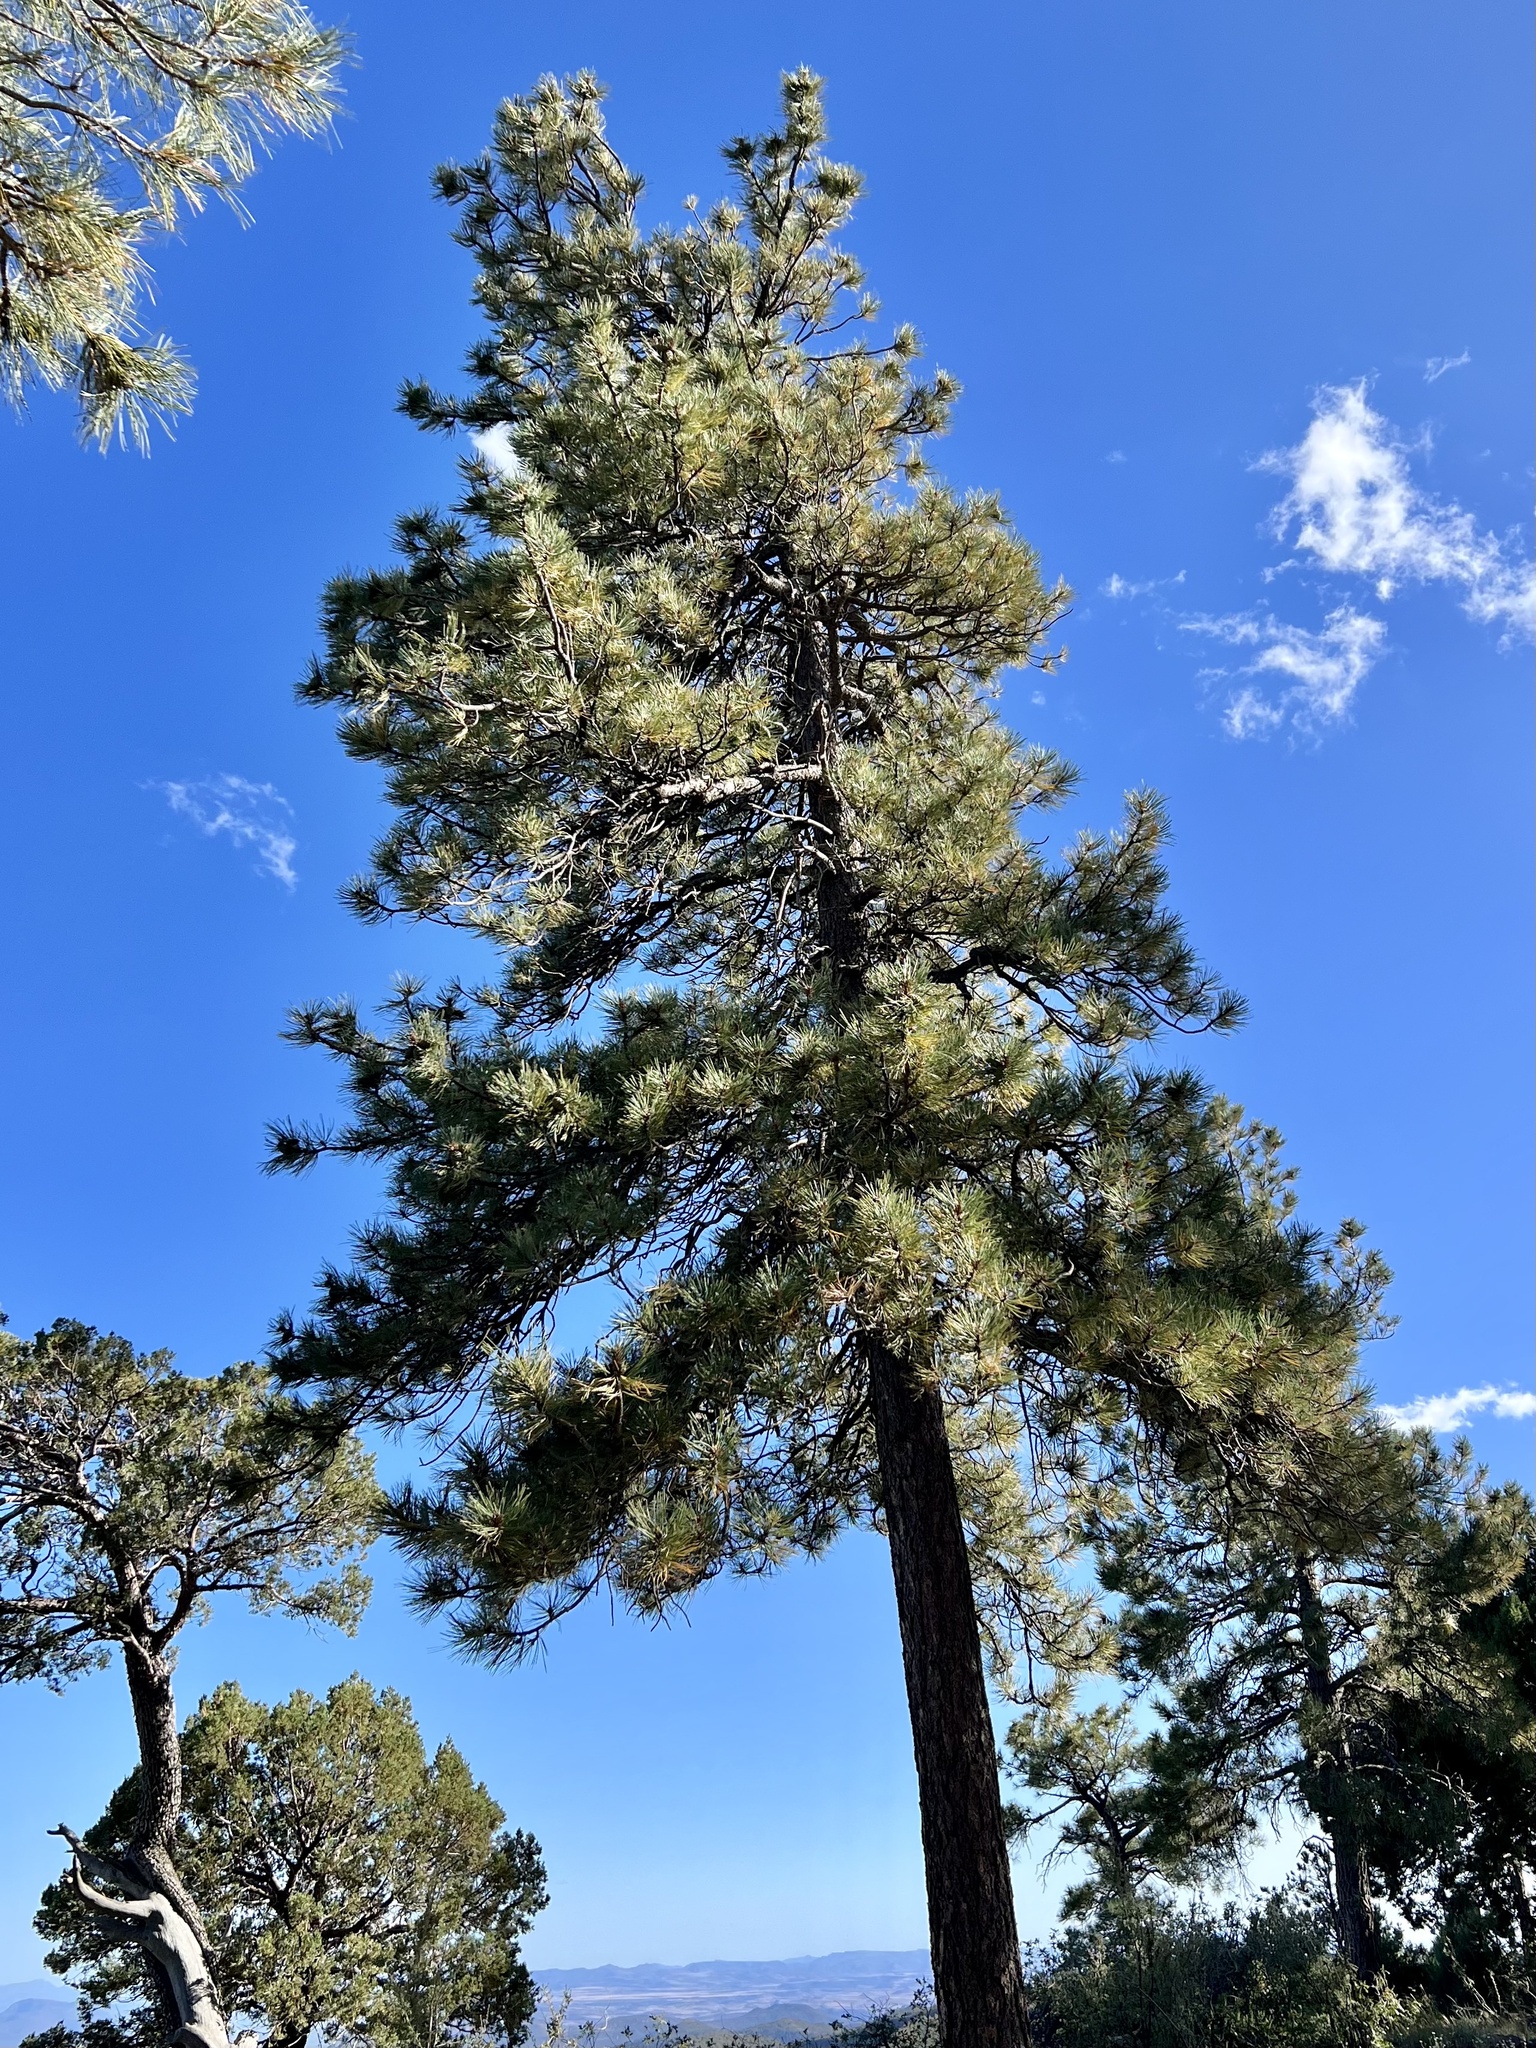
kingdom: Plantae
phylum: Tracheophyta
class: Pinopsida
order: Pinales
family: Pinaceae
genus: Pinus
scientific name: Pinus ponderosa
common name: Western yellow-pine
